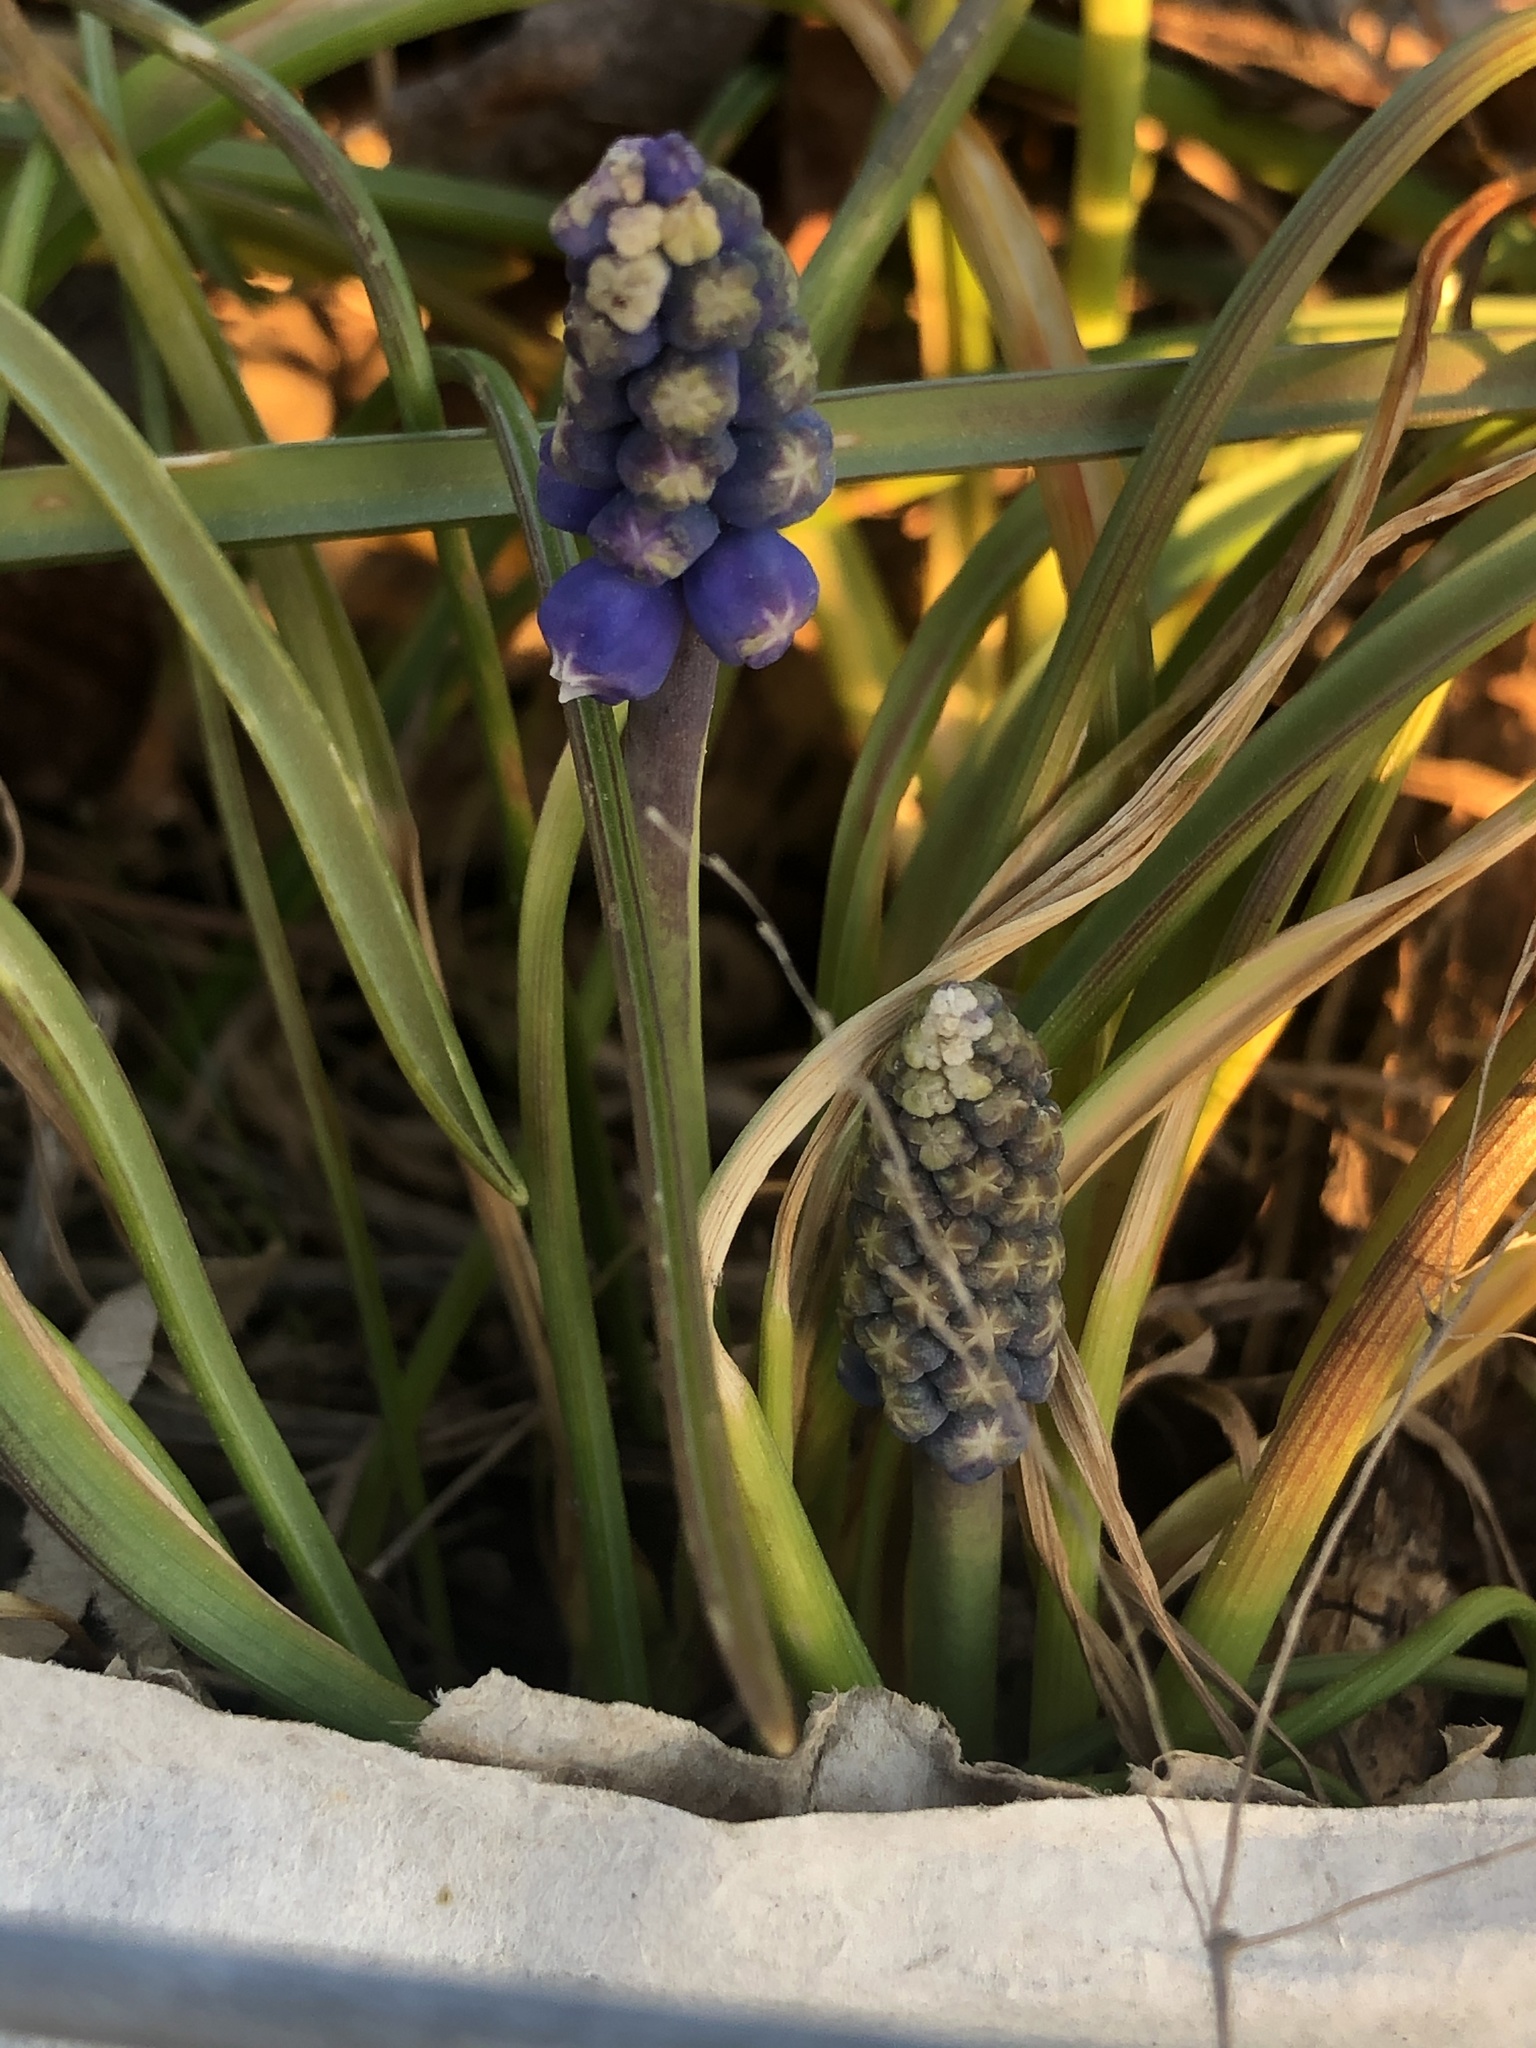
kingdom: Plantae
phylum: Tracheophyta
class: Liliopsida
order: Asparagales
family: Asparagaceae
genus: Muscari
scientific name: Muscari armeniacum
